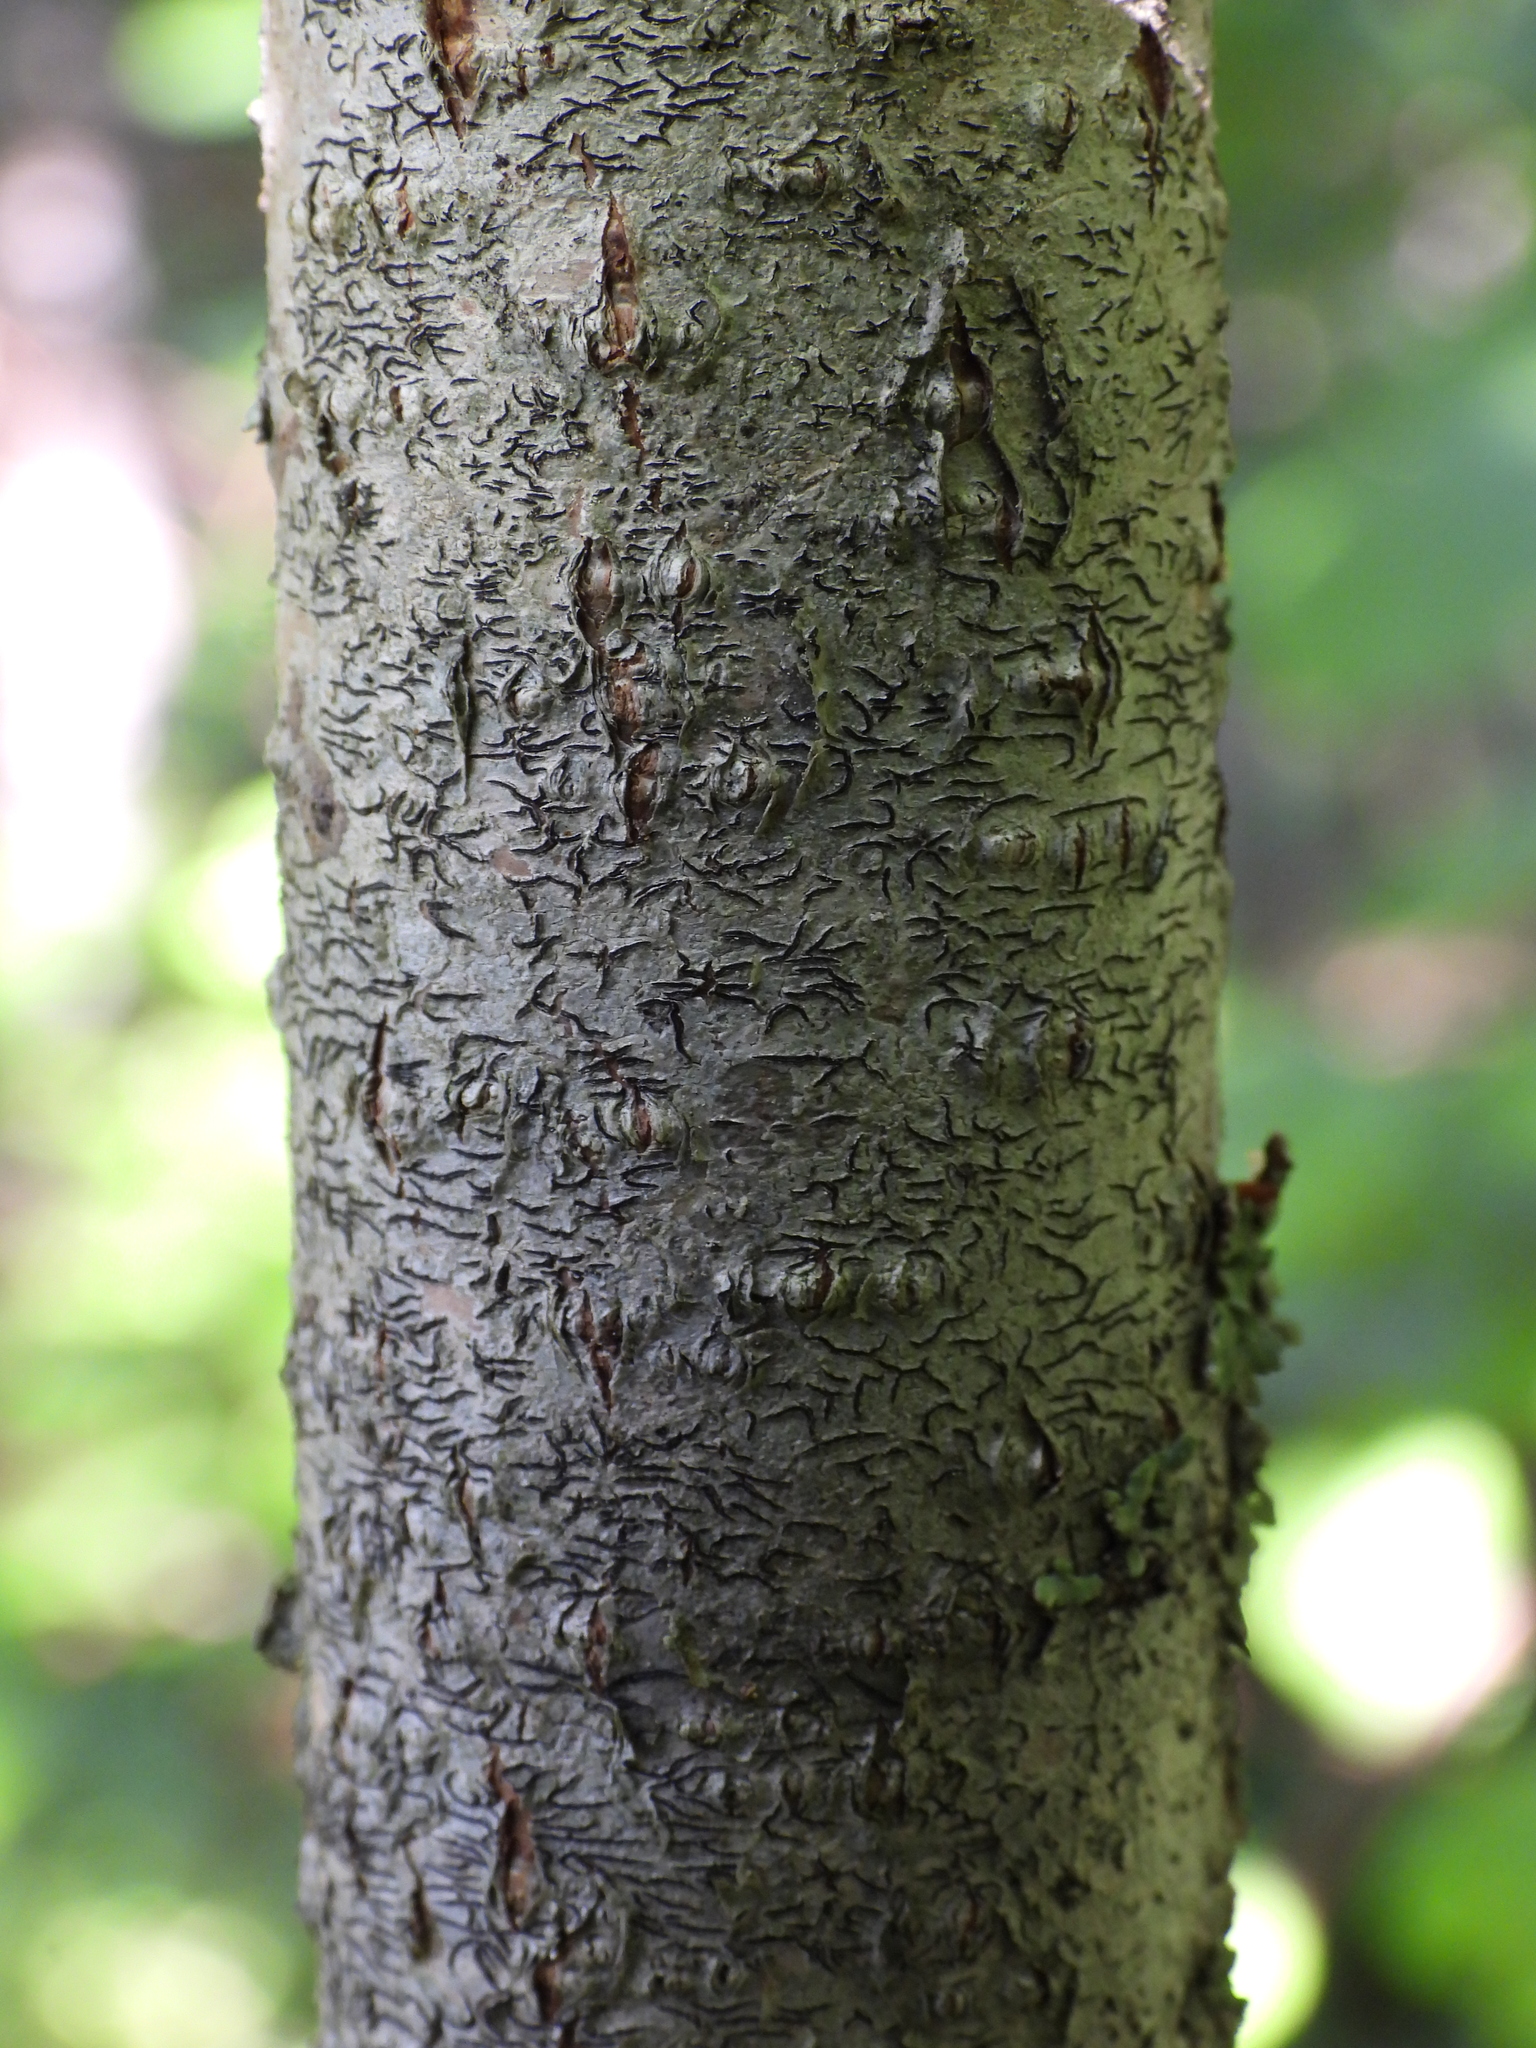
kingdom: Fungi
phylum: Ascomycota
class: Lecanoromycetes
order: Ostropales
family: Graphidaceae
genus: Graphis
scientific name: Graphis scripta
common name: Script lichen
